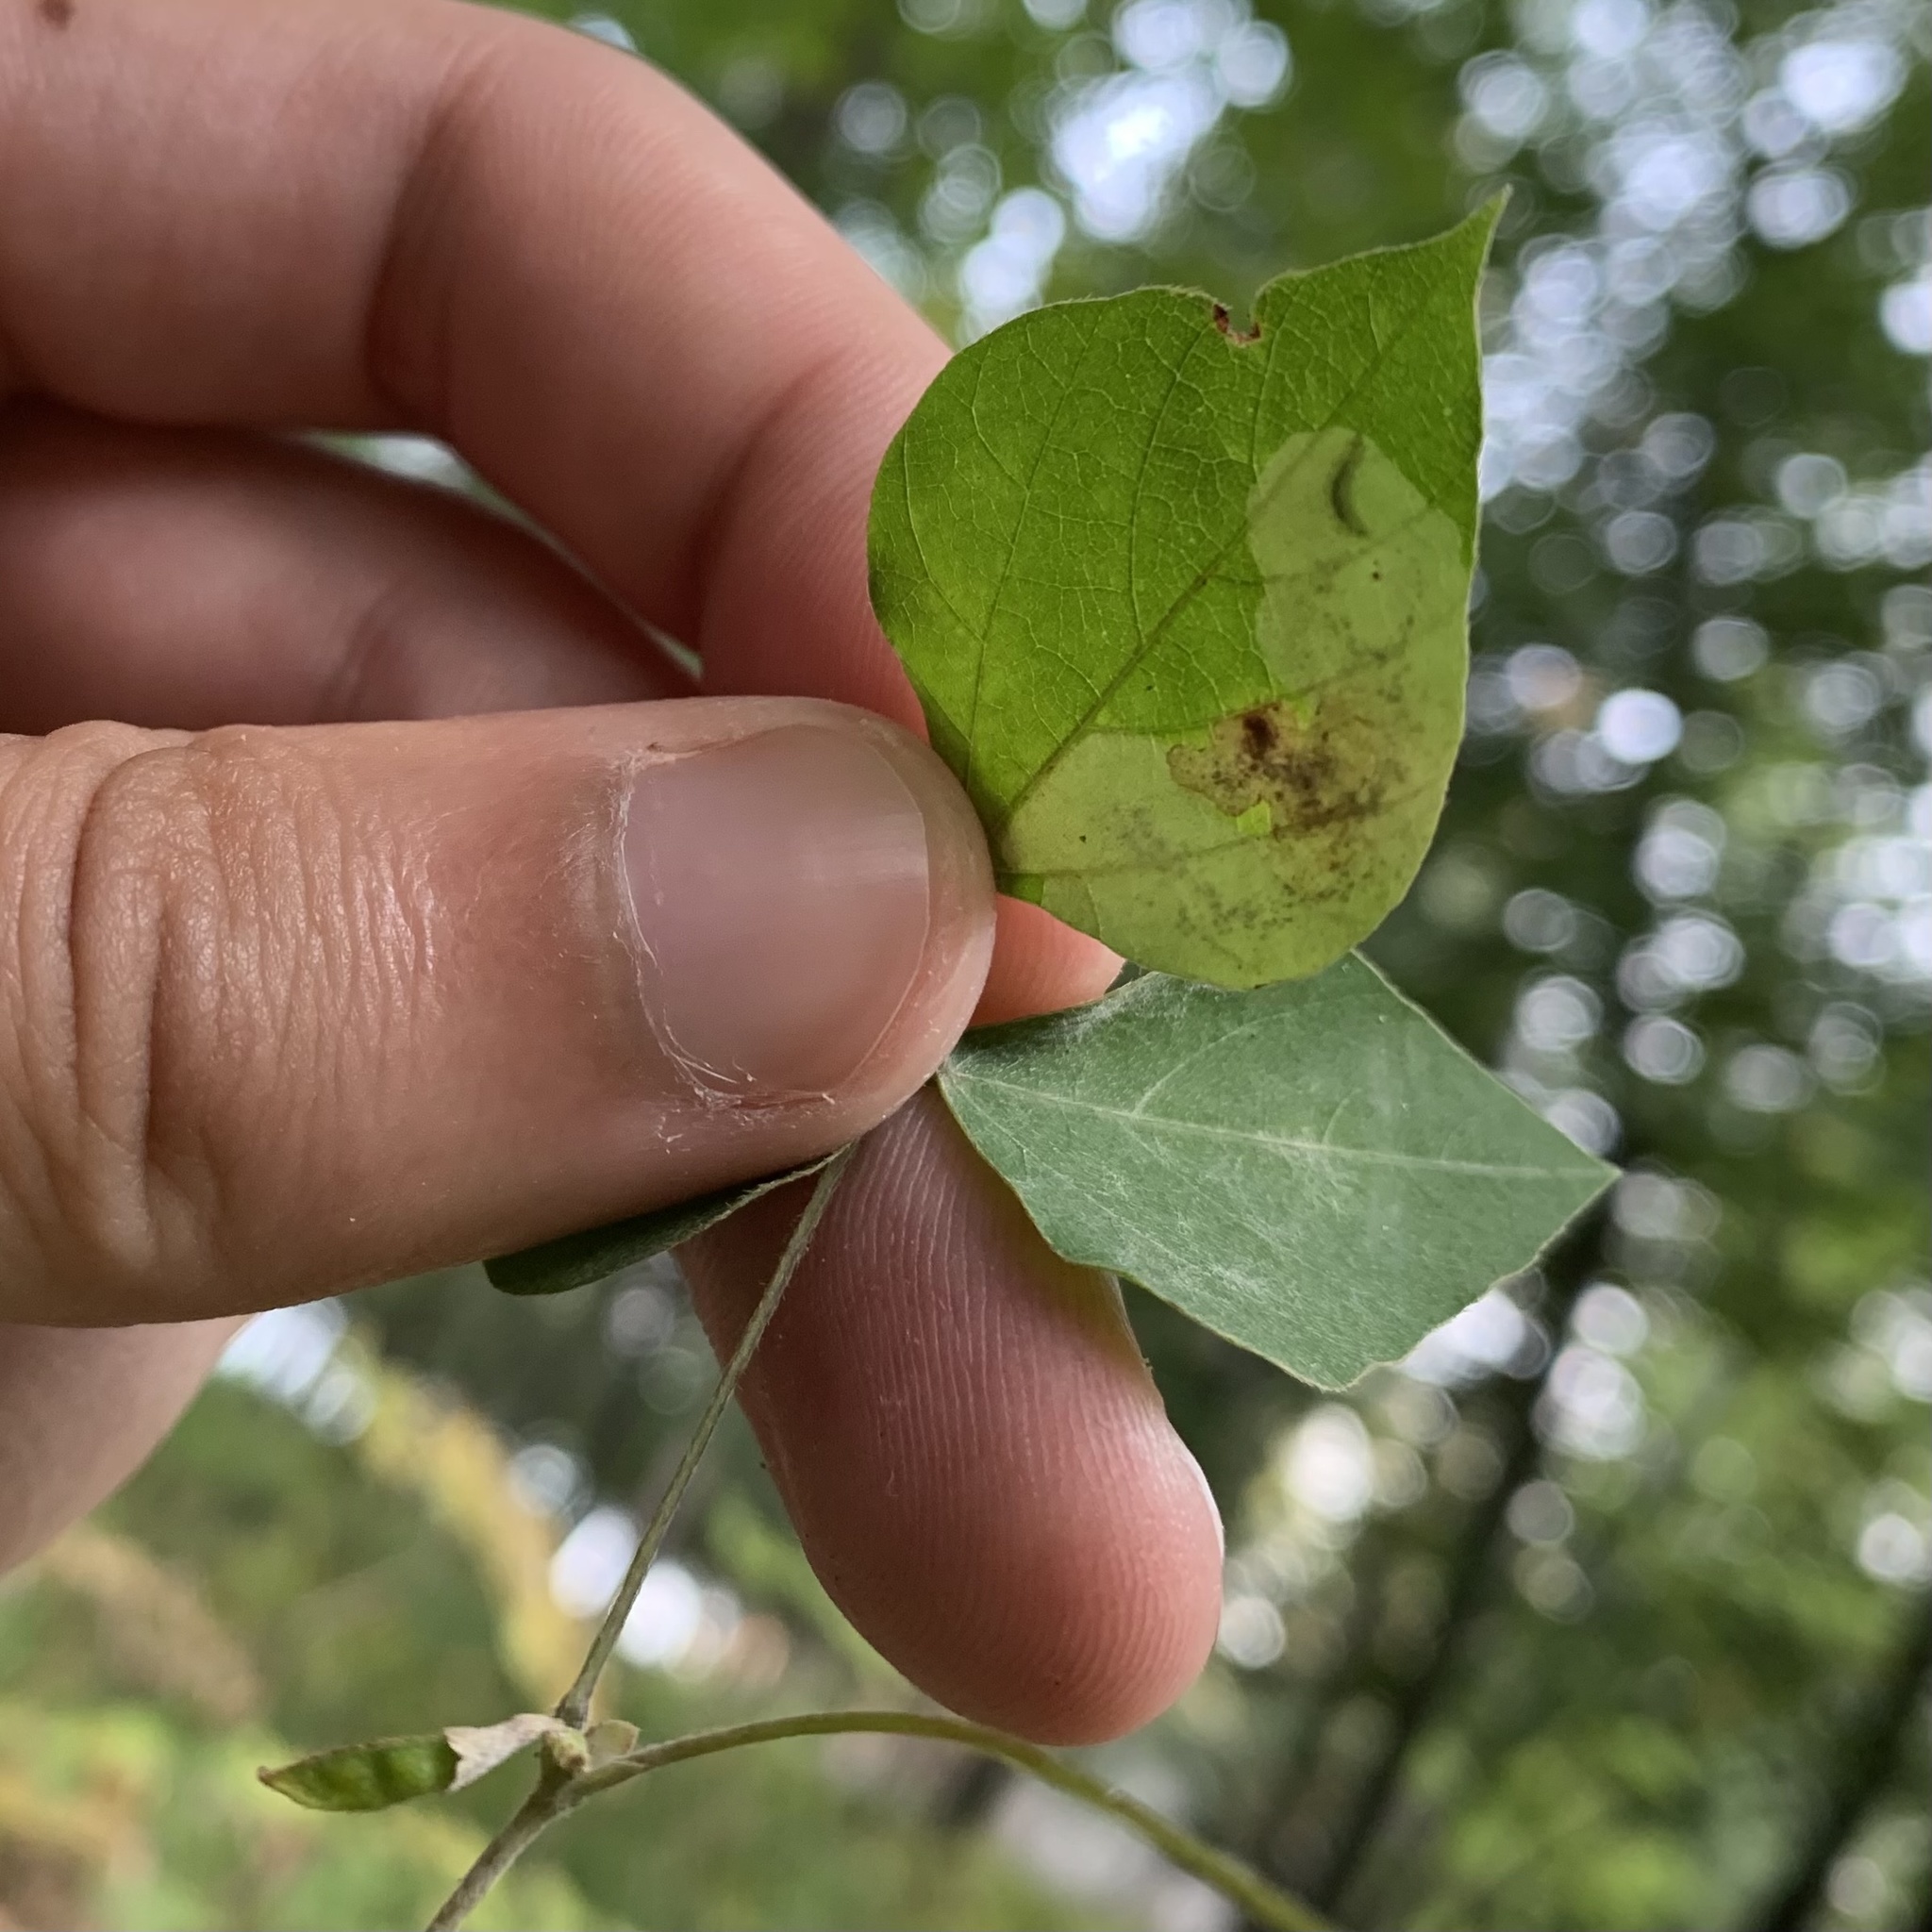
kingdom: Animalia
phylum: Arthropoda
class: Insecta
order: Lepidoptera
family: Gracillariidae
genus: Leucanthiza
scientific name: Leucanthiza amphicarpeaefoliella
